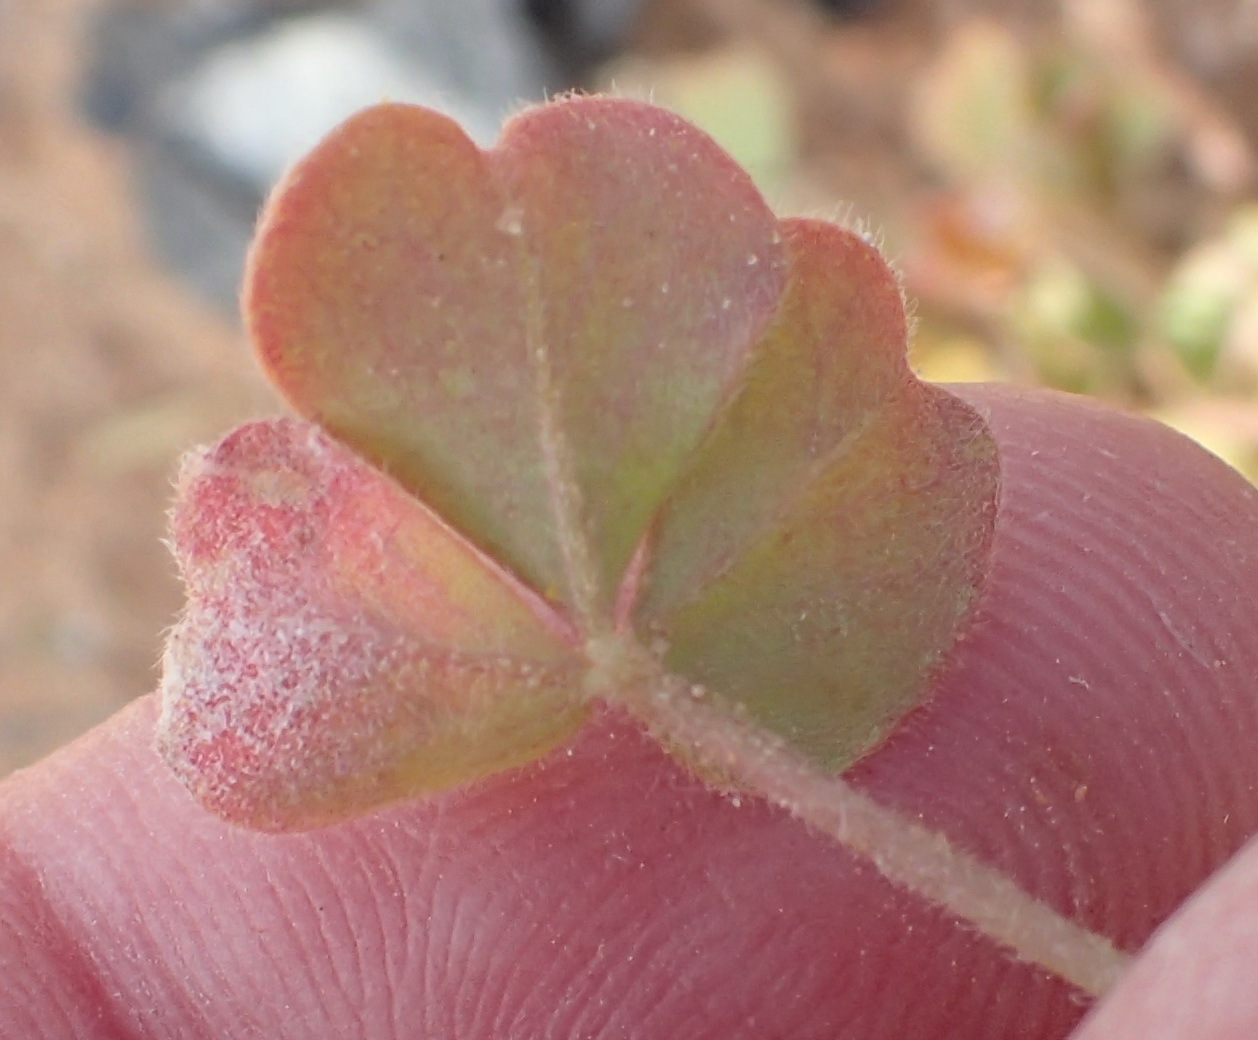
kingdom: Plantae
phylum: Tracheophyta
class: Magnoliopsida
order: Oxalidales
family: Oxalidaceae
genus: Oxalis
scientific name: Oxalis obtusa
